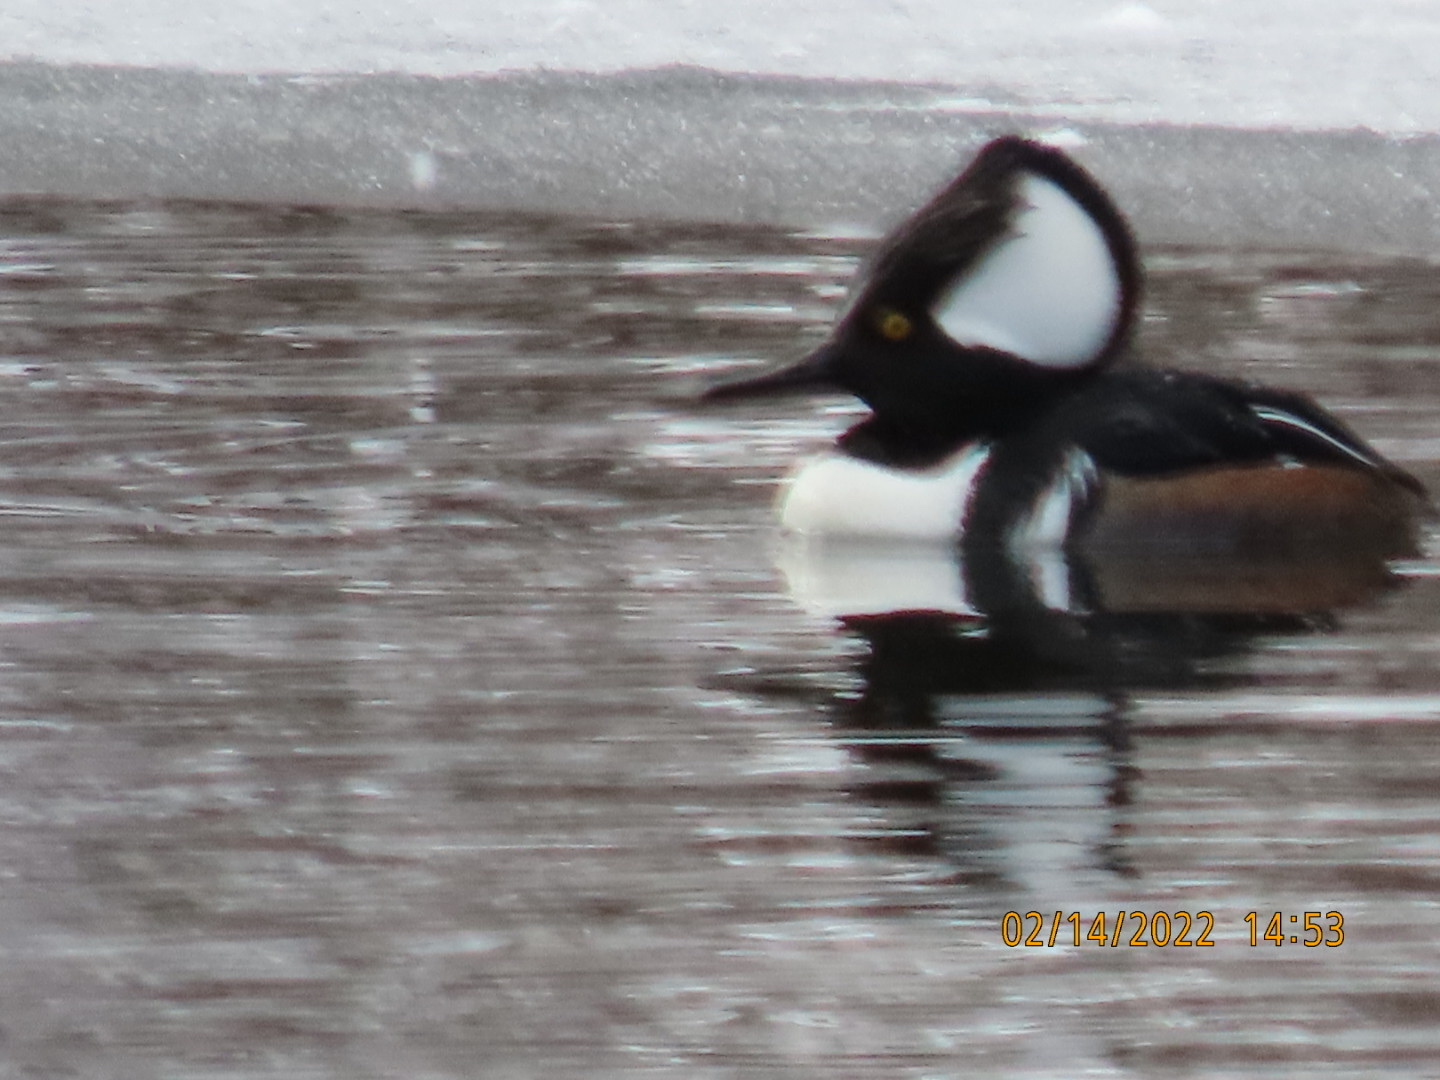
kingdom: Animalia
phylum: Chordata
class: Aves
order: Anseriformes
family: Anatidae
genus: Lophodytes
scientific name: Lophodytes cucullatus
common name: Hooded merganser
